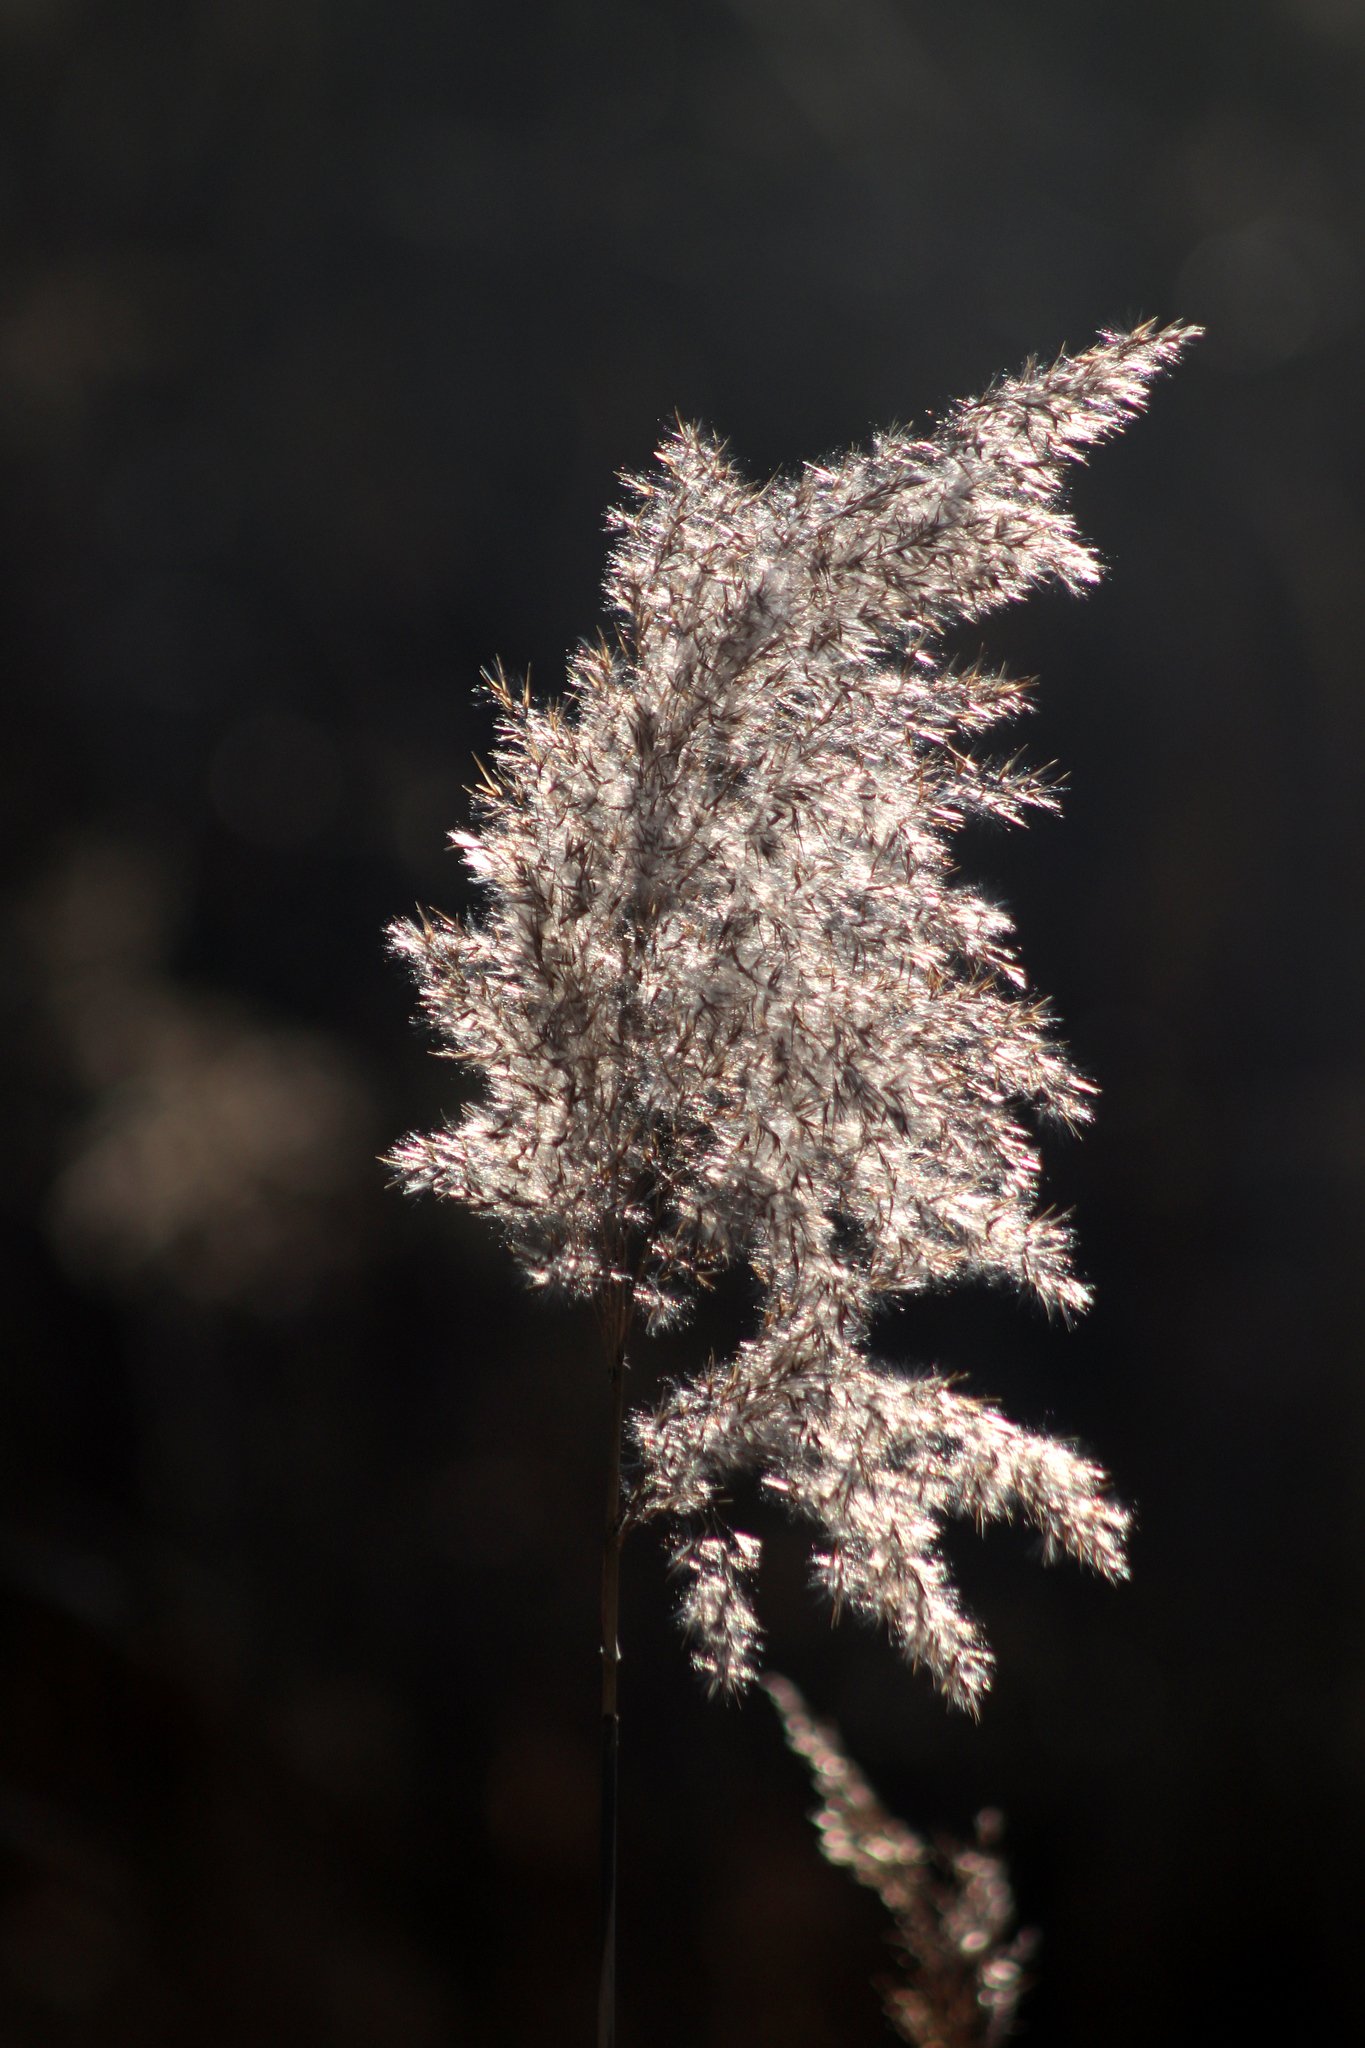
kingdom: Plantae
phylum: Tracheophyta
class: Liliopsida
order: Poales
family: Poaceae
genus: Phragmites
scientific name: Phragmites australis
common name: Common reed
